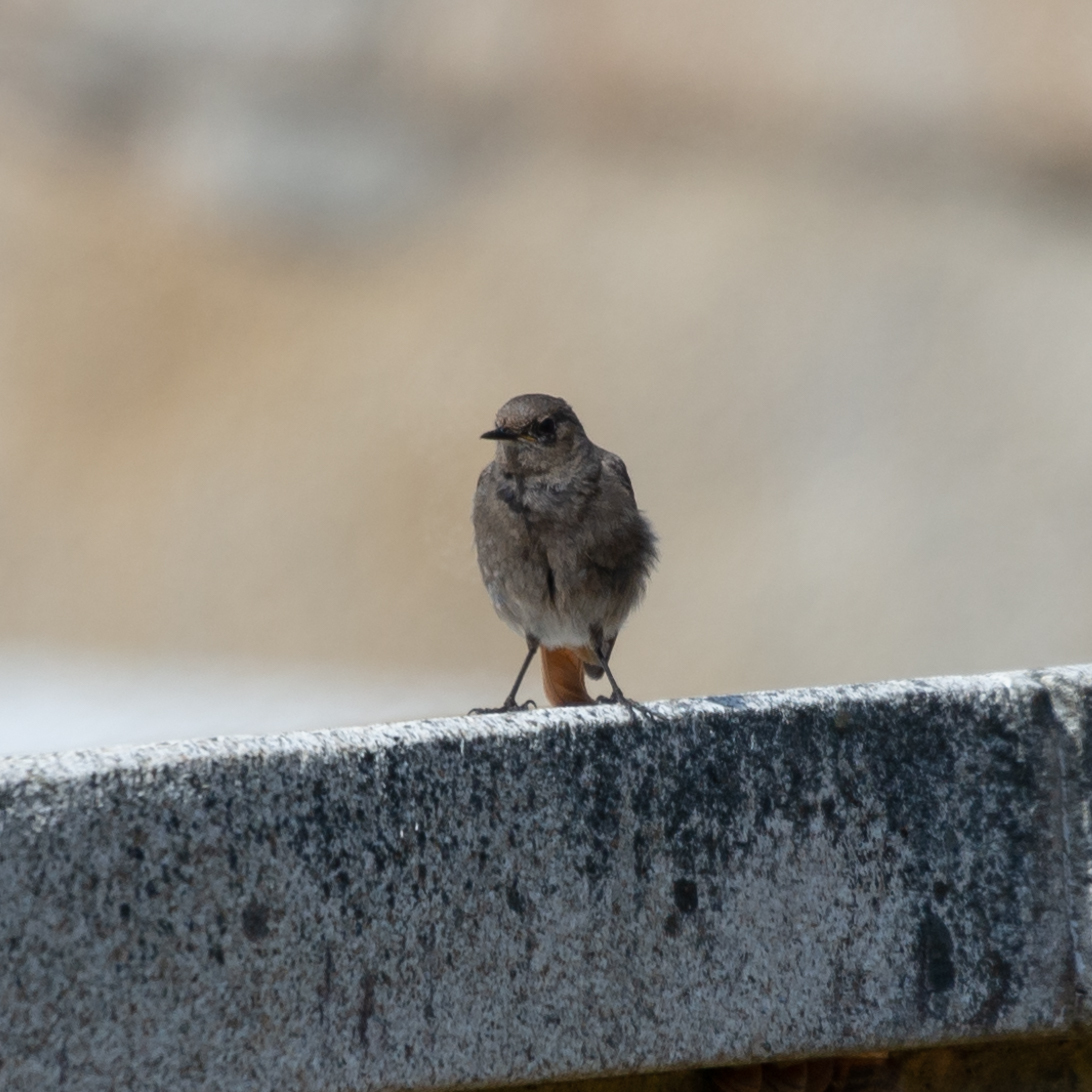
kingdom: Animalia
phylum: Chordata
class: Aves
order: Passeriformes
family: Muscicapidae
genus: Phoenicurus
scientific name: Phoenicurus ochruros
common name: Black redstart
